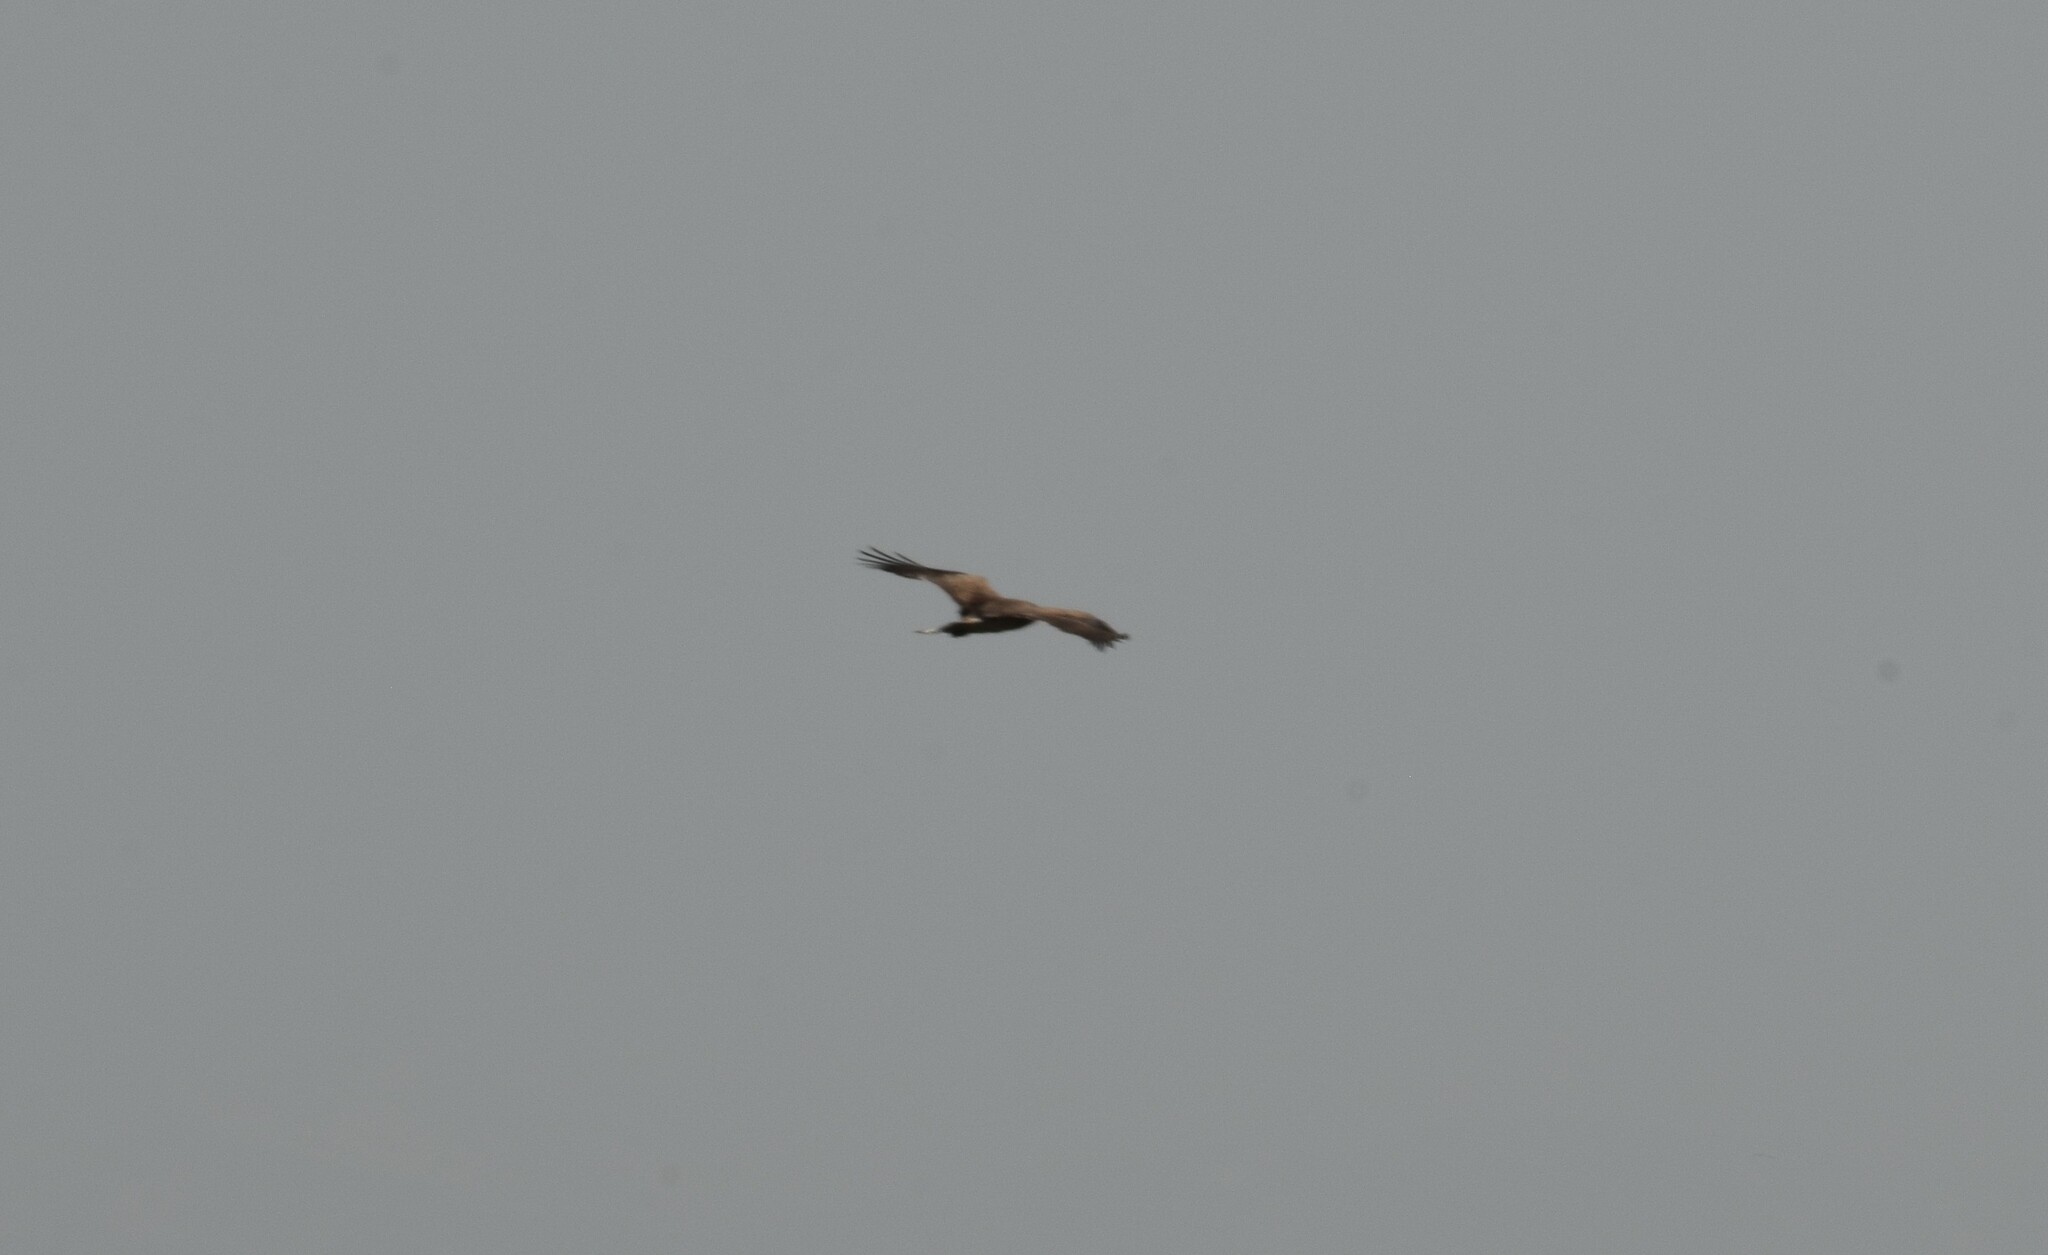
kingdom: Animalia
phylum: Chordata
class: Aves
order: Accipitriformes
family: Accipitridae
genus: Circaetus
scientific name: Circaetus gallicus
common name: Short-toed snake eagle
